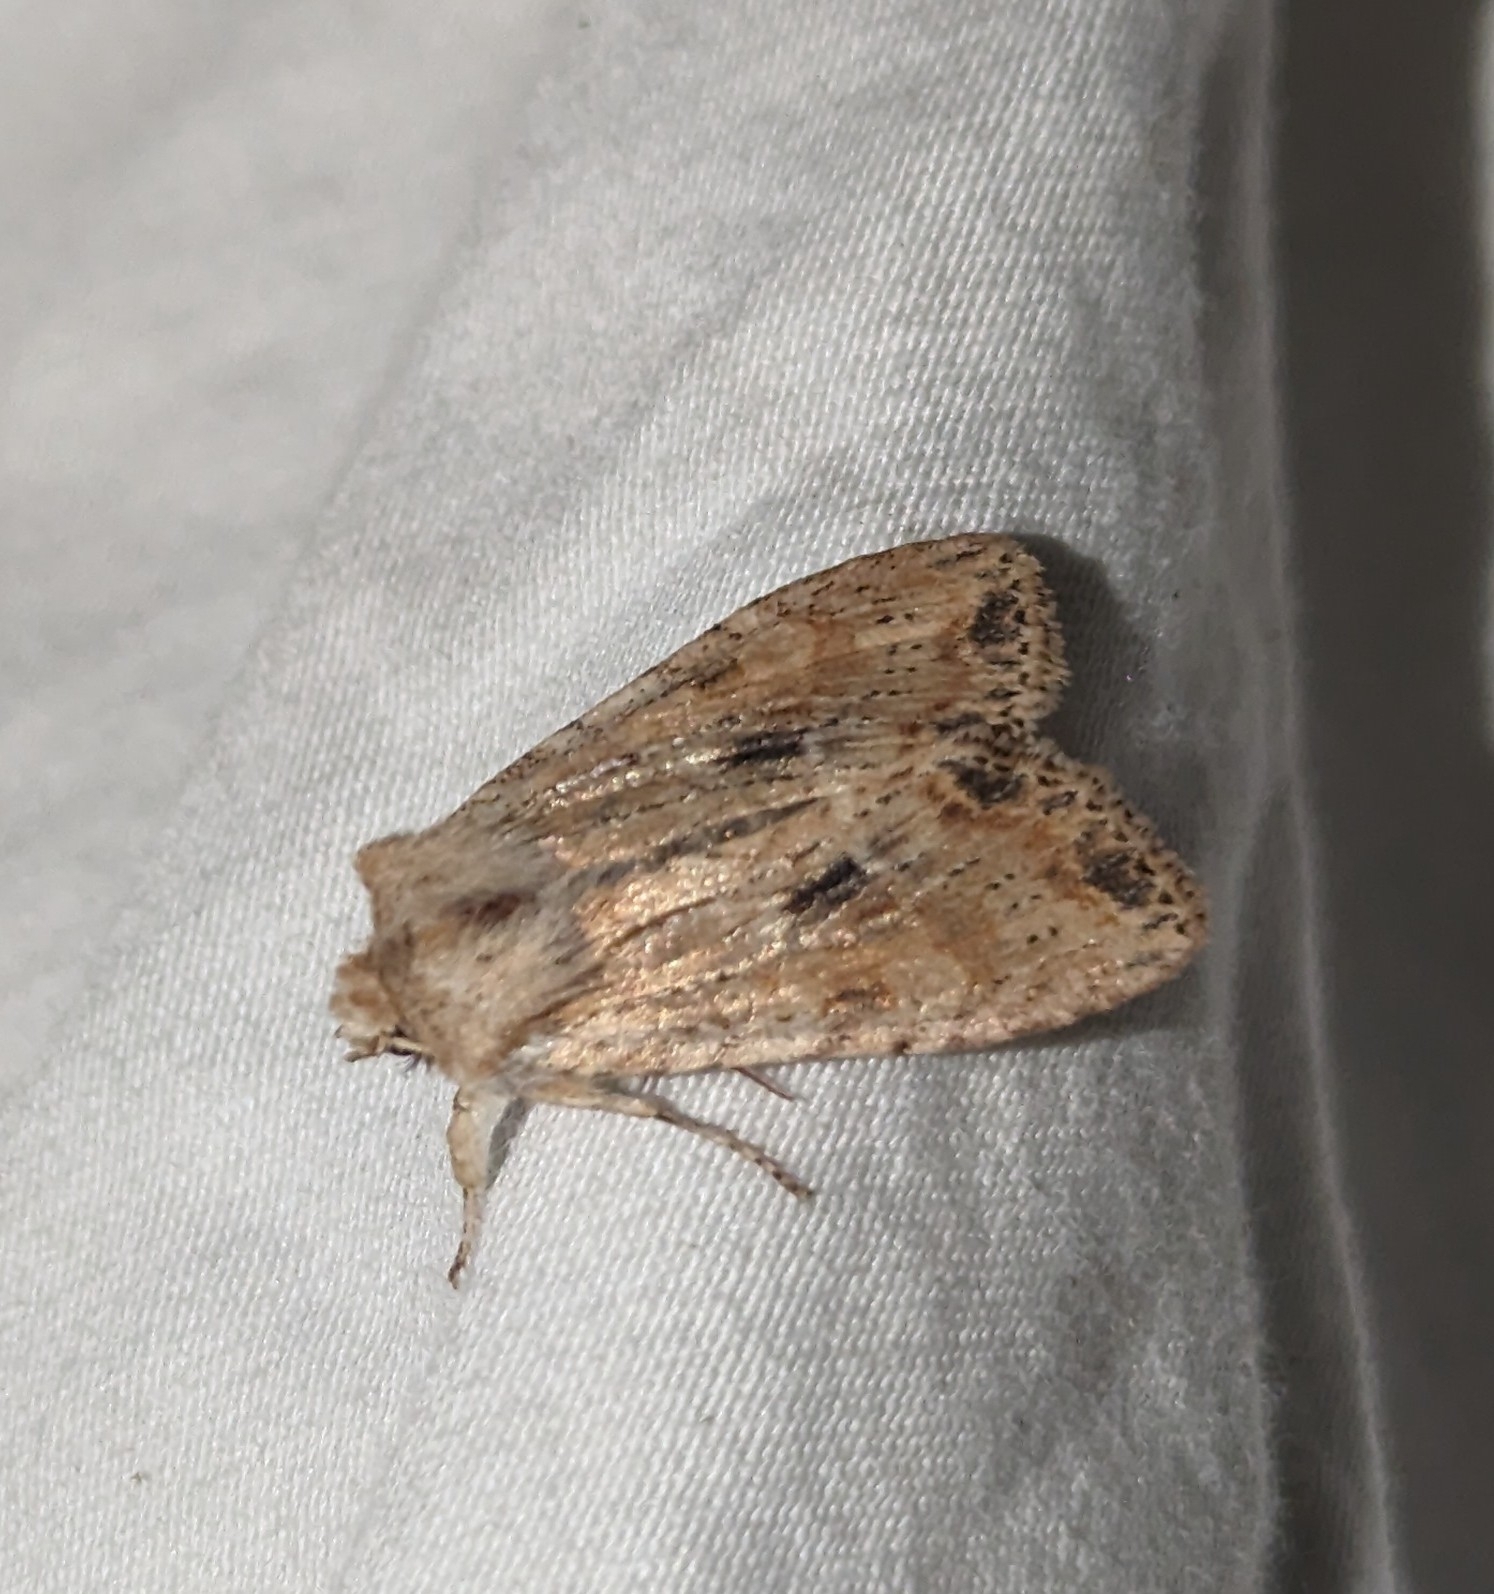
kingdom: Animalia
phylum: Arthropoda
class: Insecta
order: Lepidoptera
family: Noctuidae
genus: Lithophane
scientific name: Lithophane innominata
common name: Nameless pinion moth
